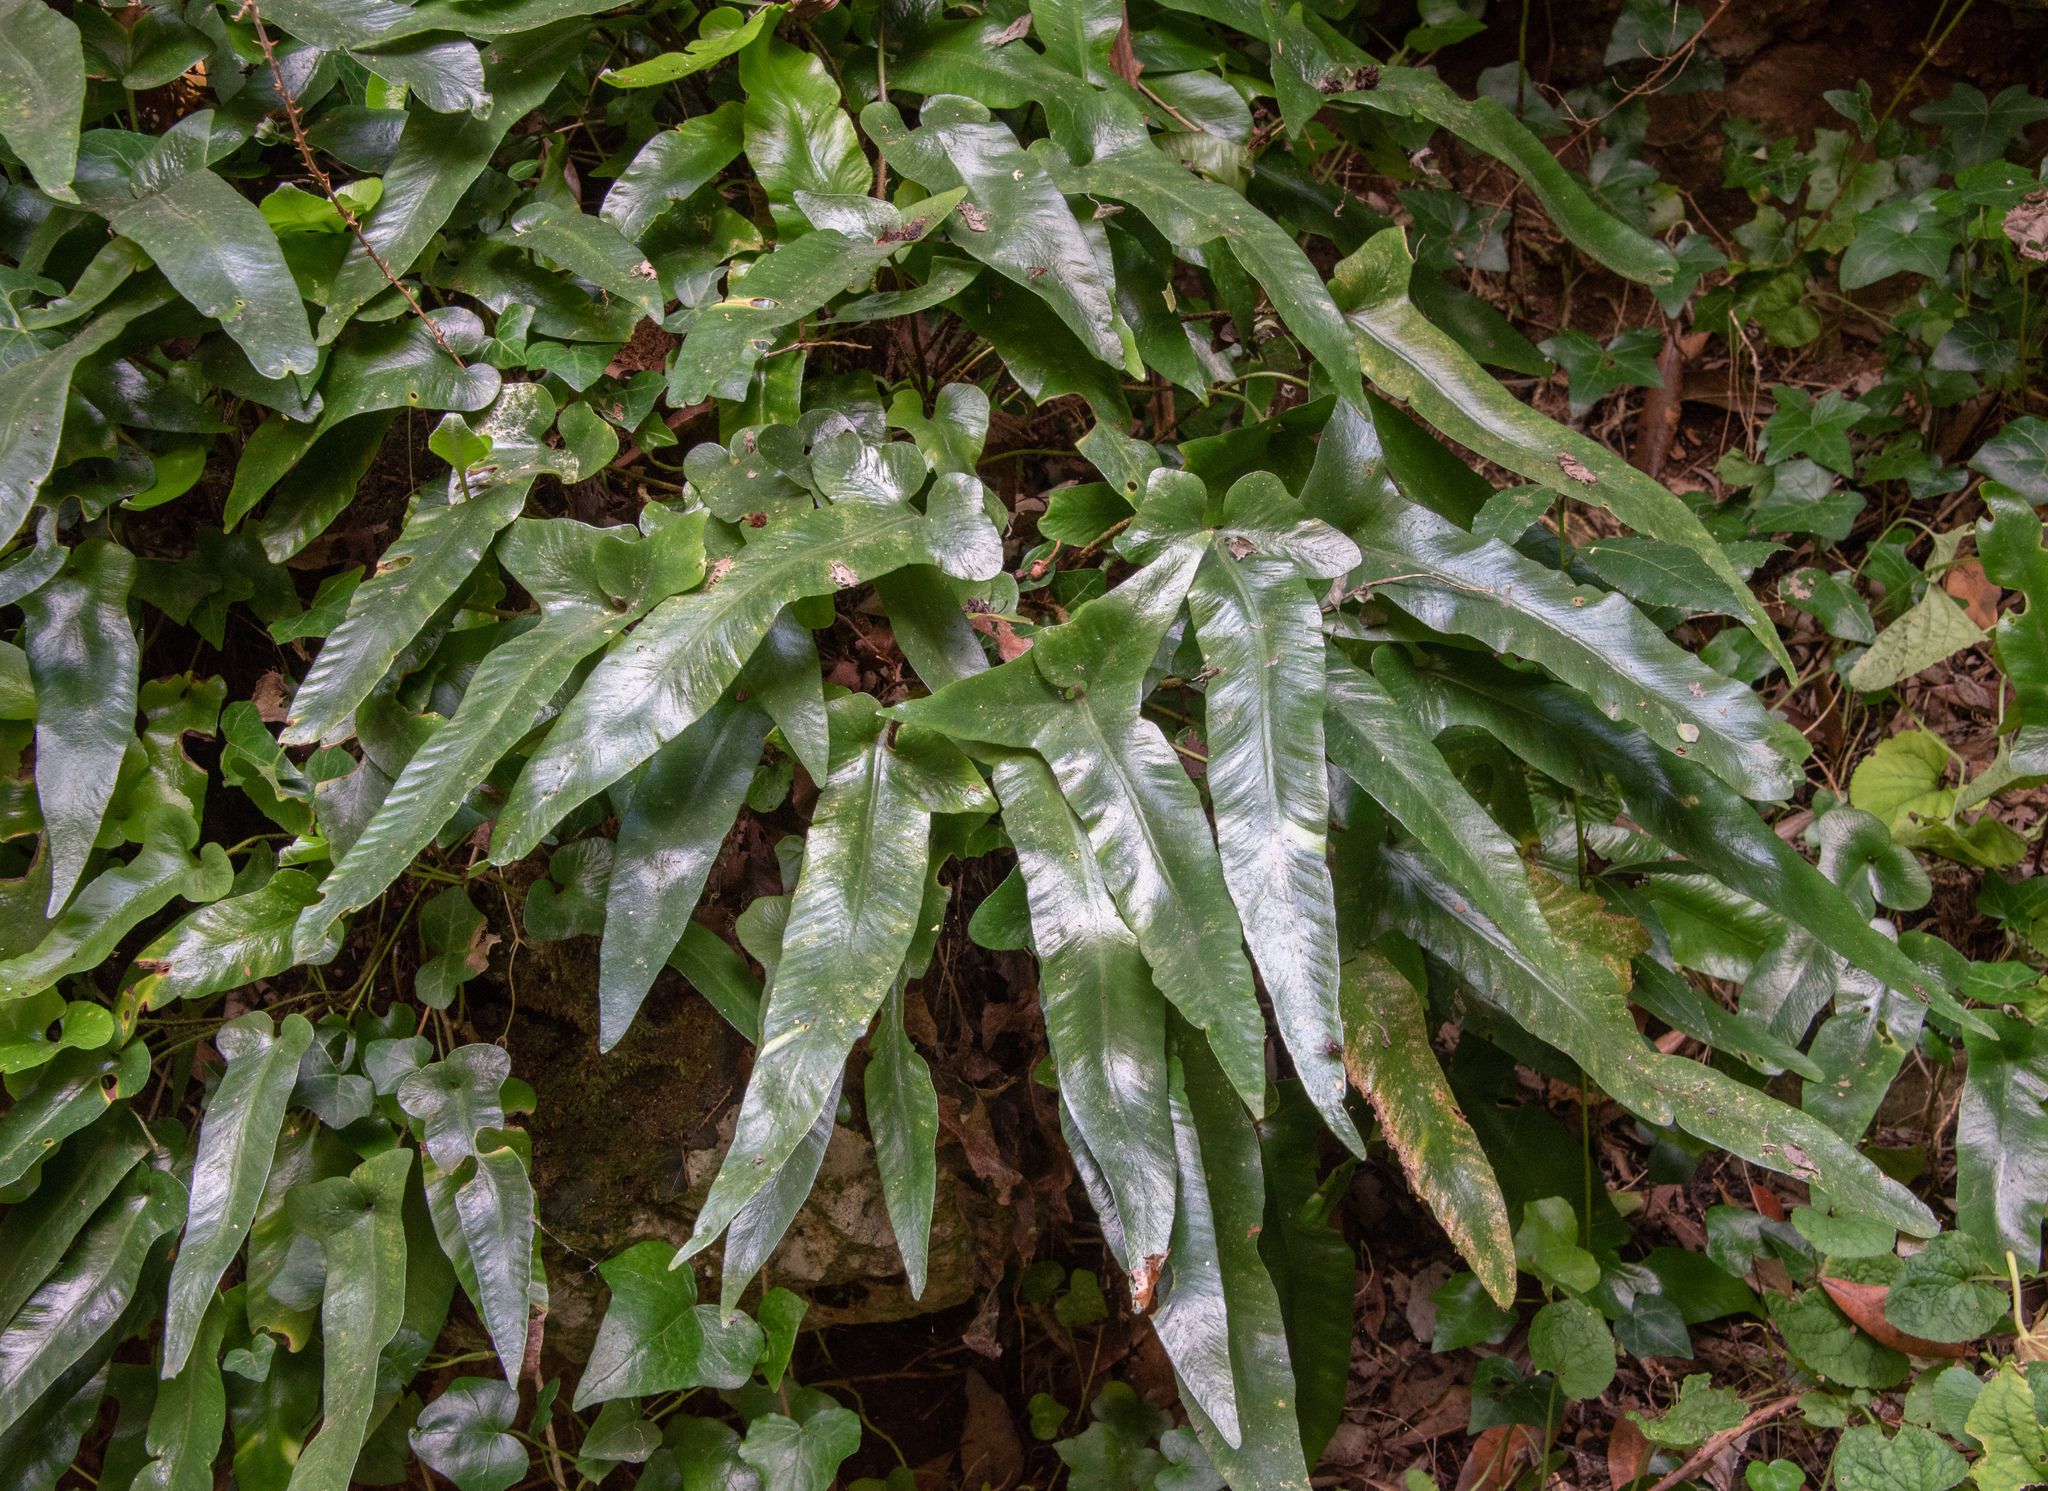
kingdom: Plantae
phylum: Tracheophyta
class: Polypodiopsida
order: Polypodiales
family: Aspleniaceae
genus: Asplenium
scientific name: Asplenium sagittatum
